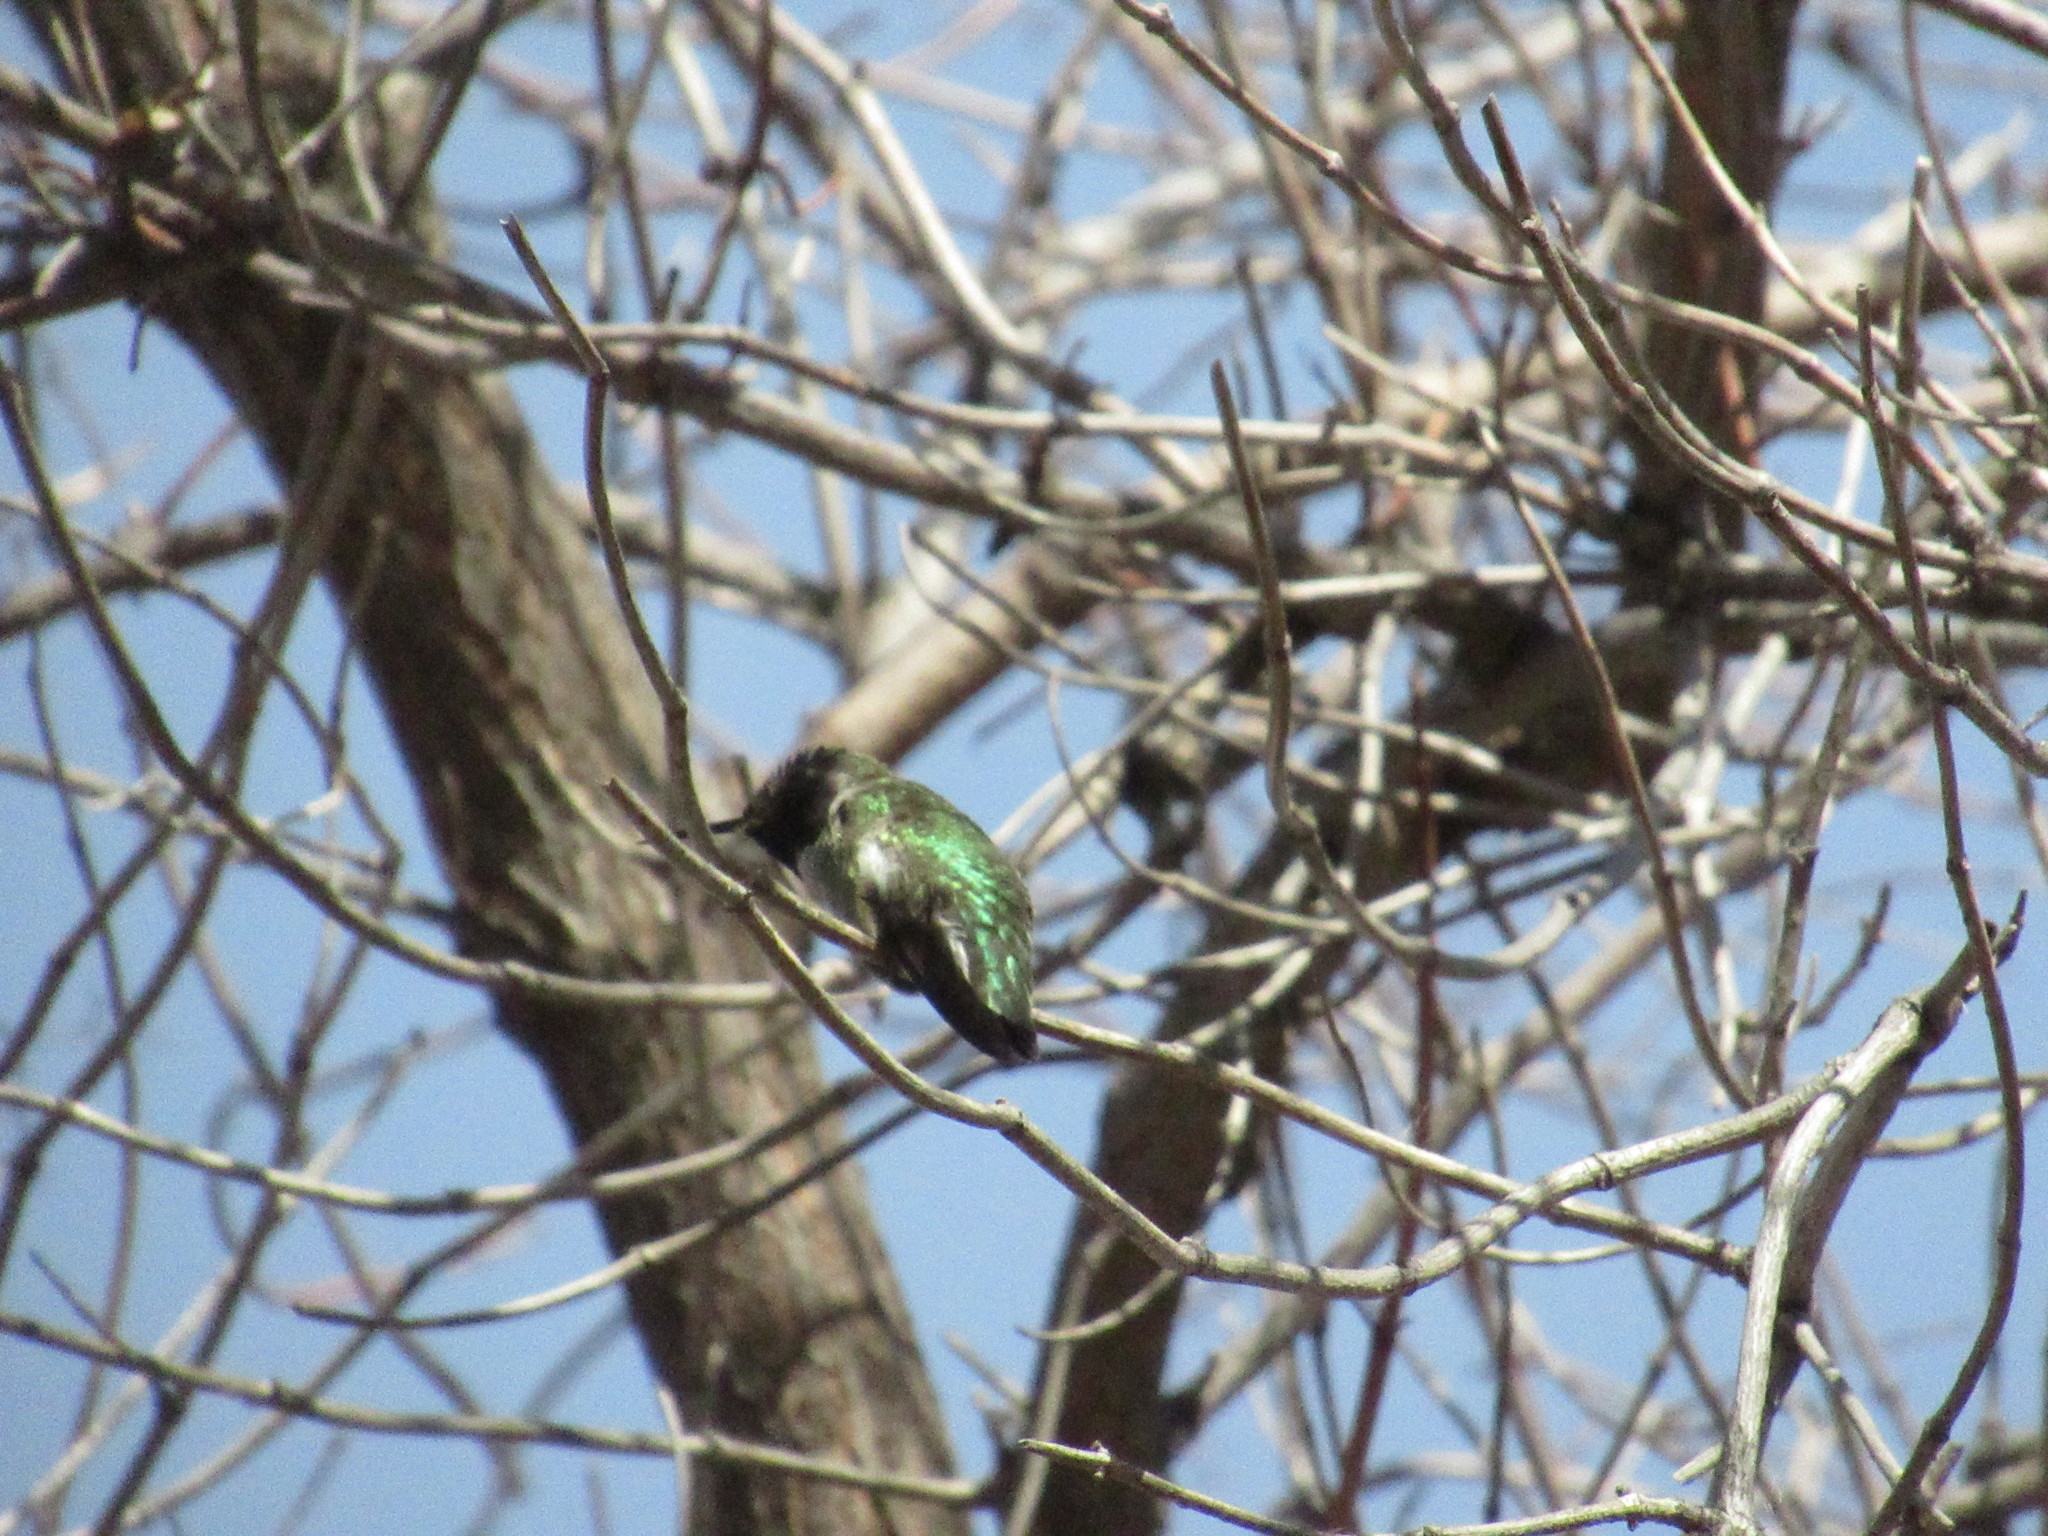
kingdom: Animalia
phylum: Chordata
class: Aves
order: Apodiformes
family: Trochilidae
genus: Calypte
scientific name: Calypte anna
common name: Anna's hummingbird
